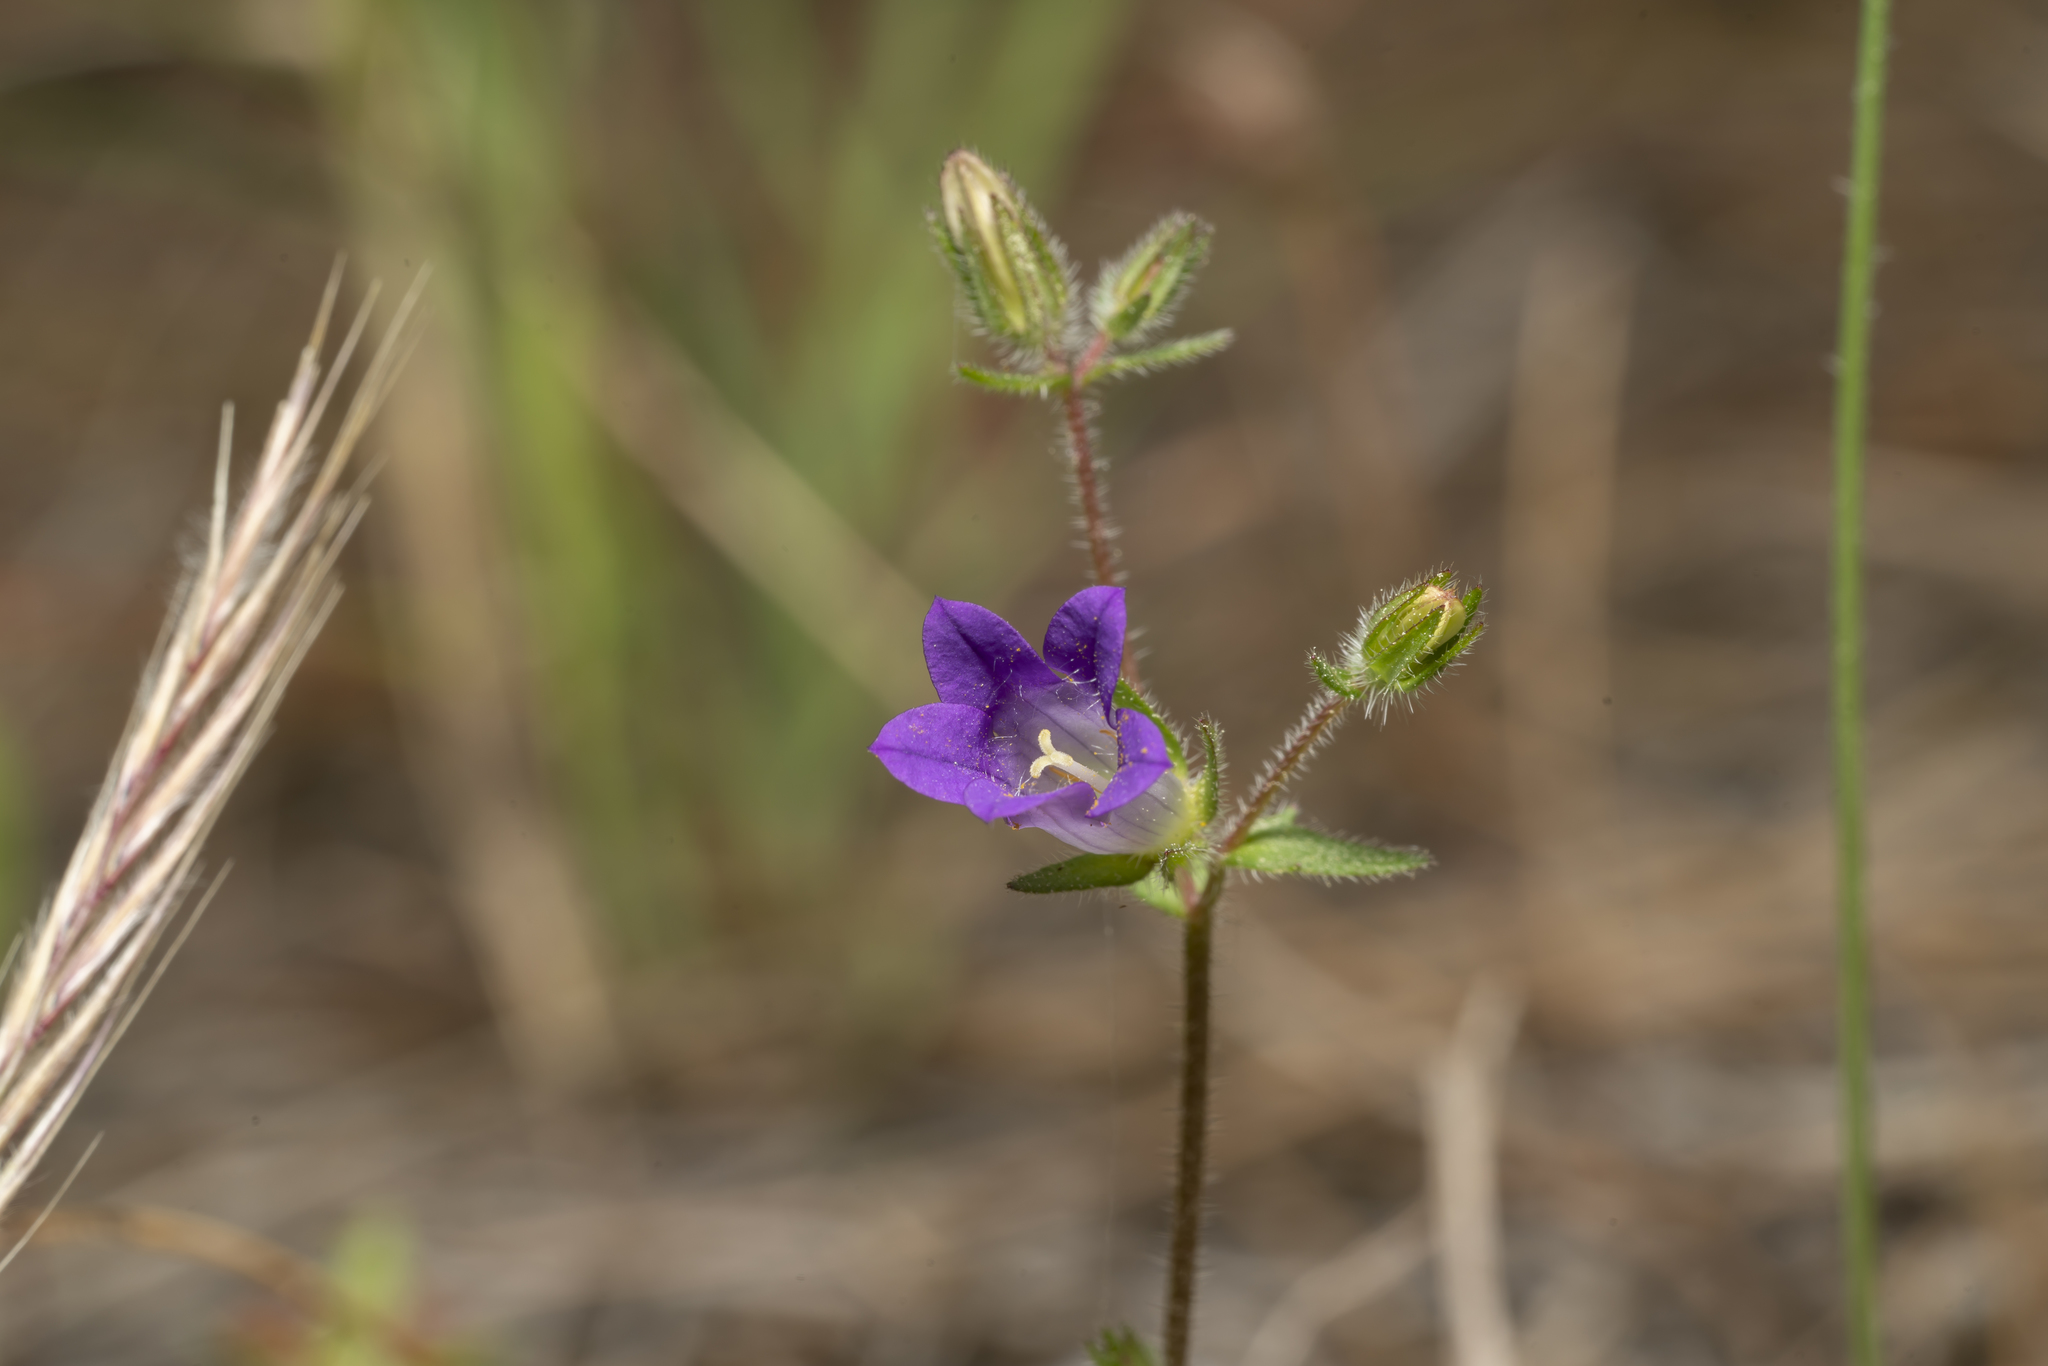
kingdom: Plantae
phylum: Tracheophyta
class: Magnoliopsida
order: Asterales
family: Campanulaceae
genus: Campanula
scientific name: Campanula rhodensis
